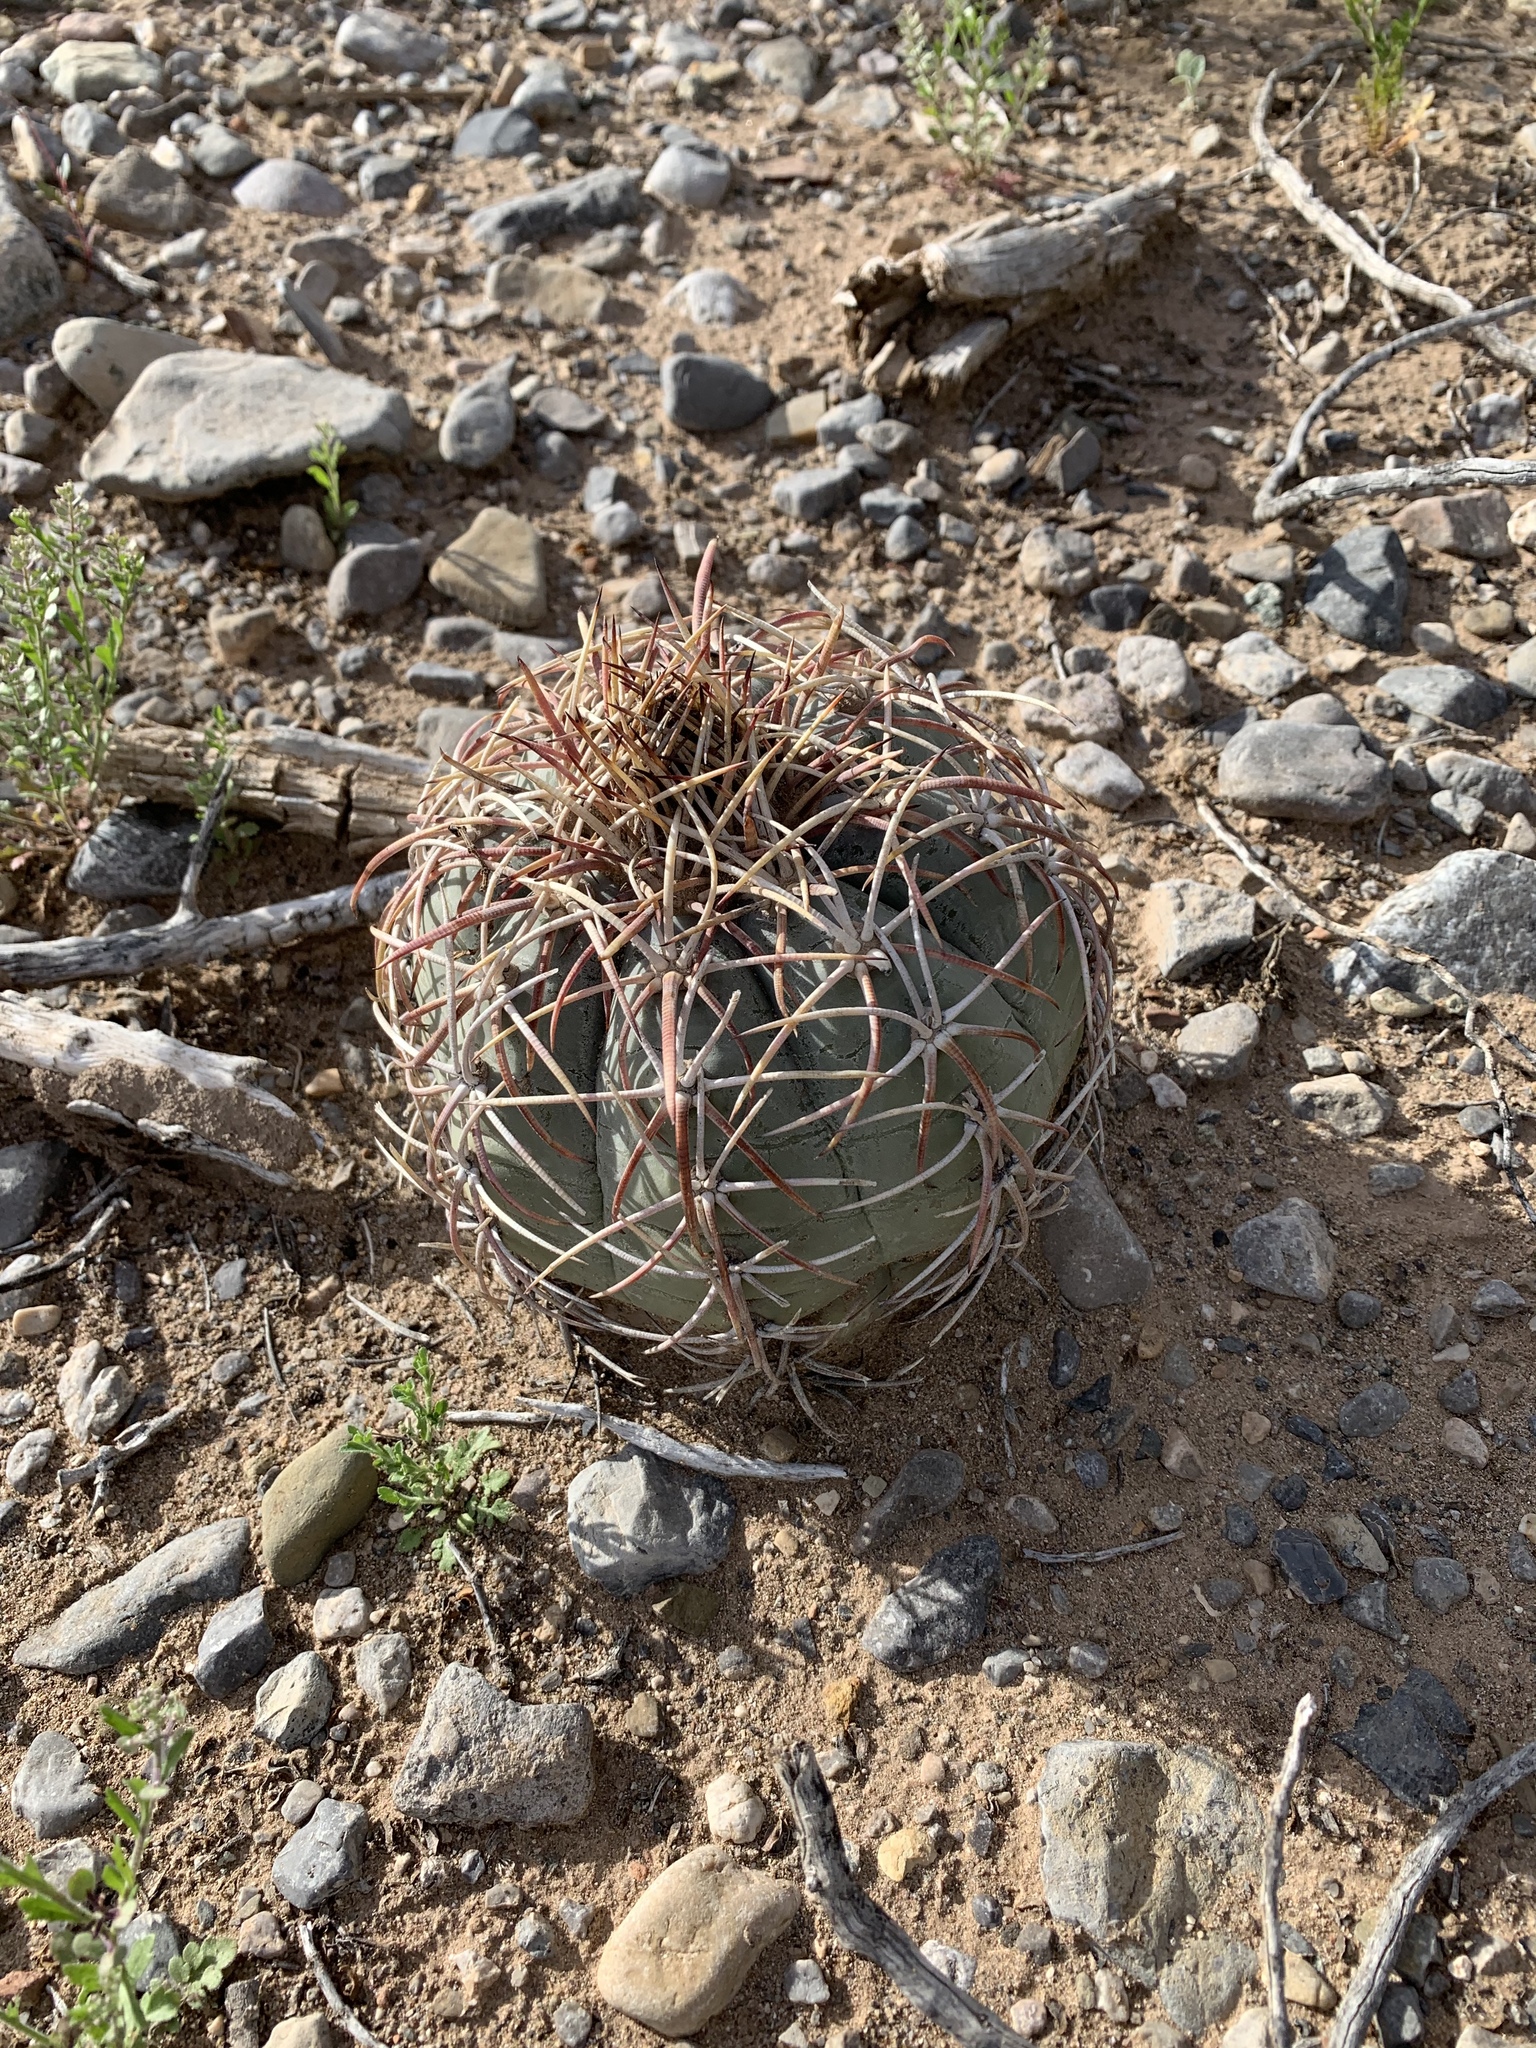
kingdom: Plantae
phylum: Tracheophyta
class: Magnoliopsida
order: Caryophyllales
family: Cactaceae
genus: Echinocactus
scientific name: Echinocactus horizonthalonius
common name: Devilshead
